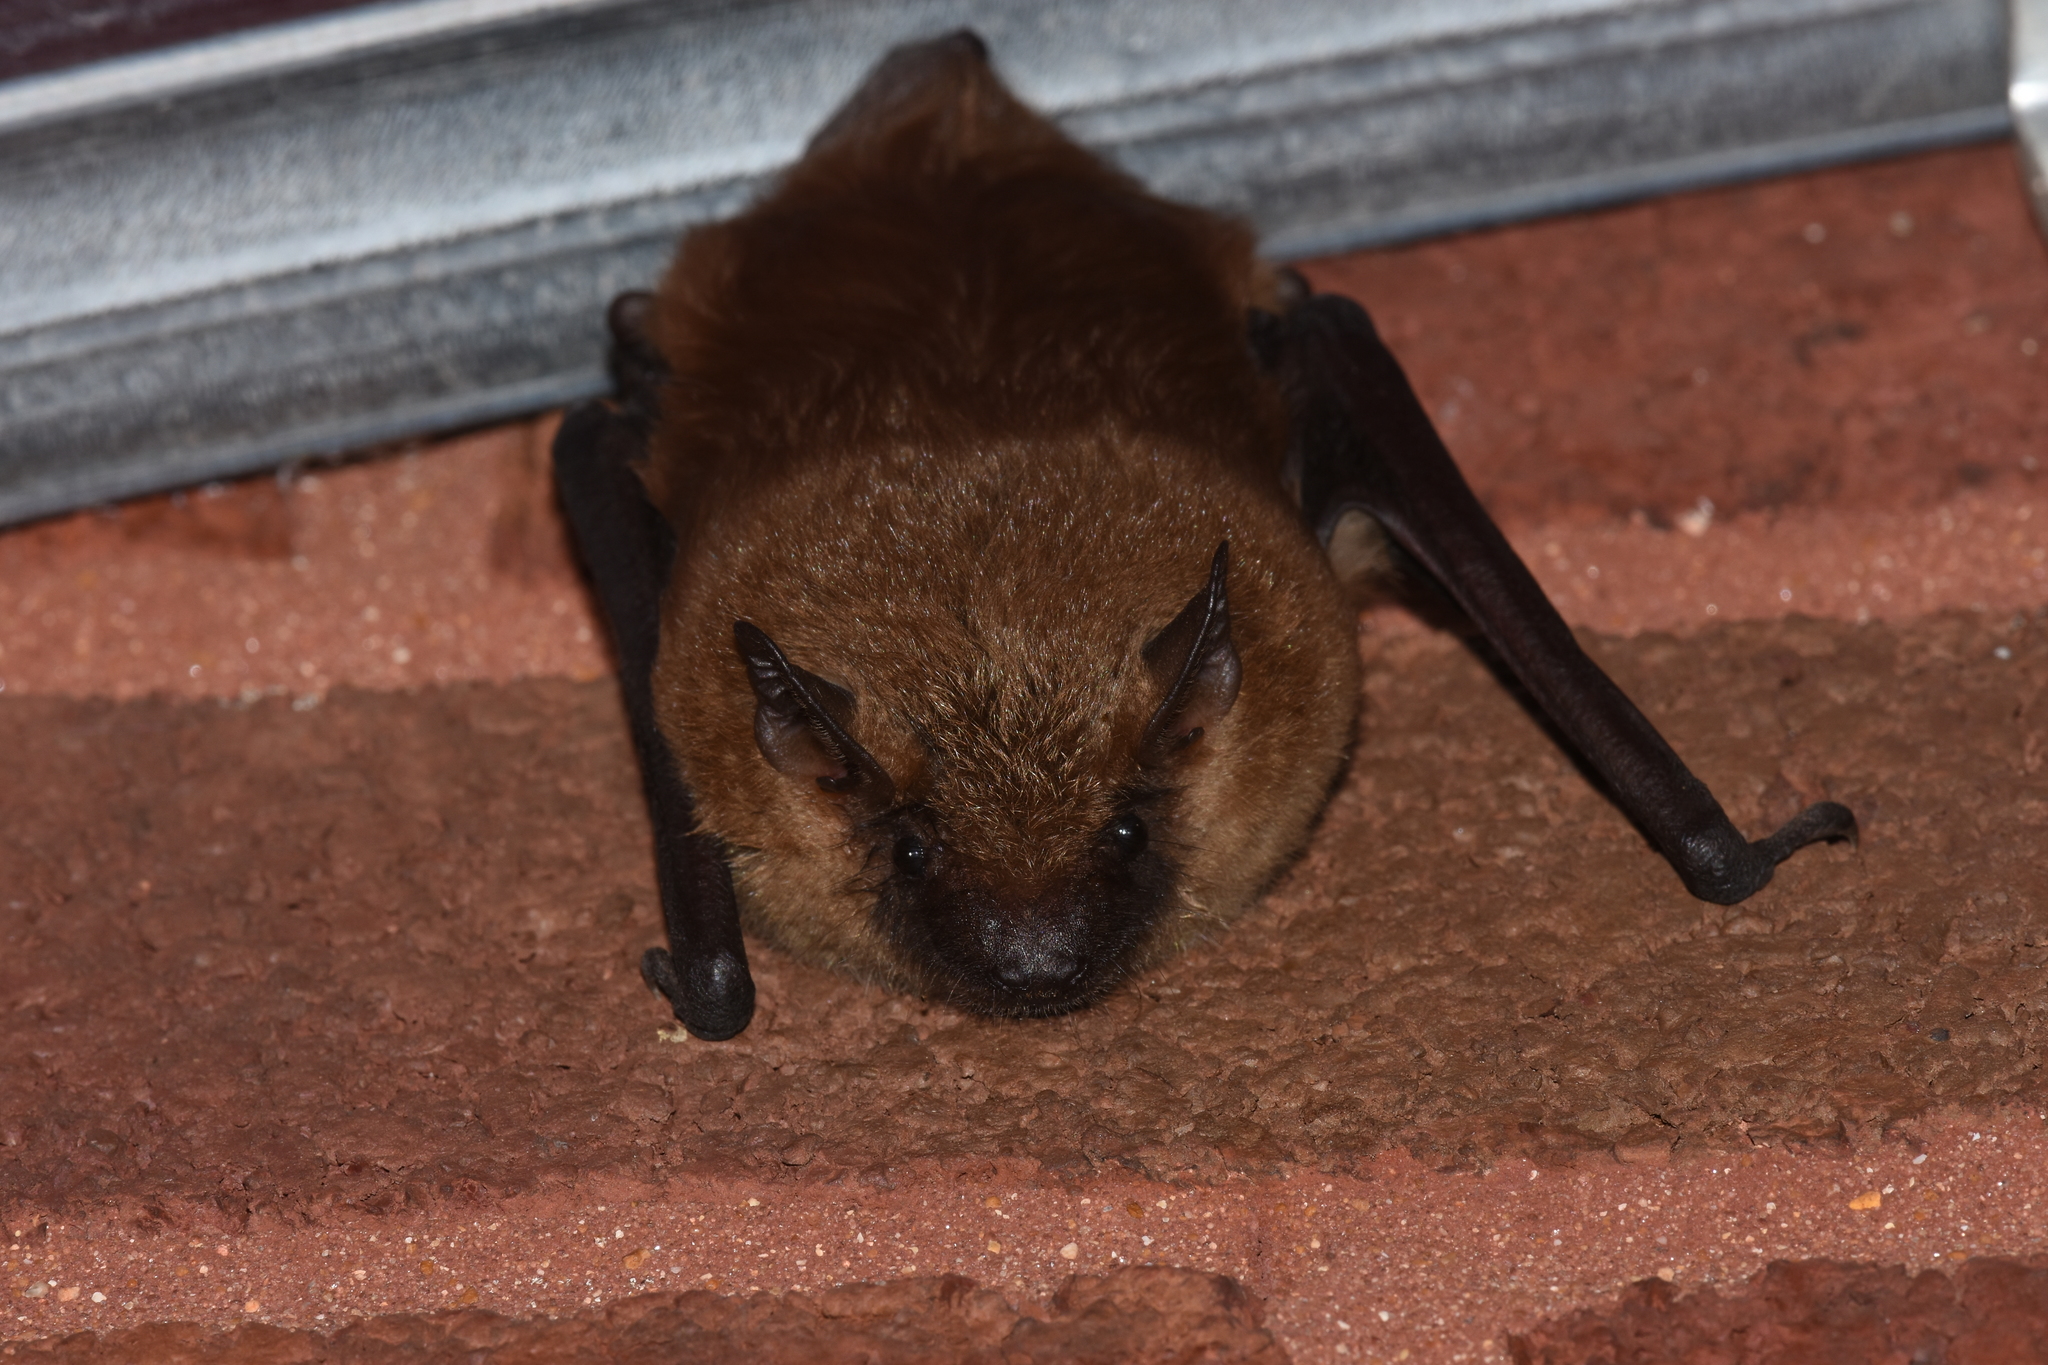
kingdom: Animalia
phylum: Chordata
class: Mammalia
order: Chiroptera
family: Vespertilionidae
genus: Eptesicus
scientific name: Eptesicus fuscus
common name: Big brown bat
